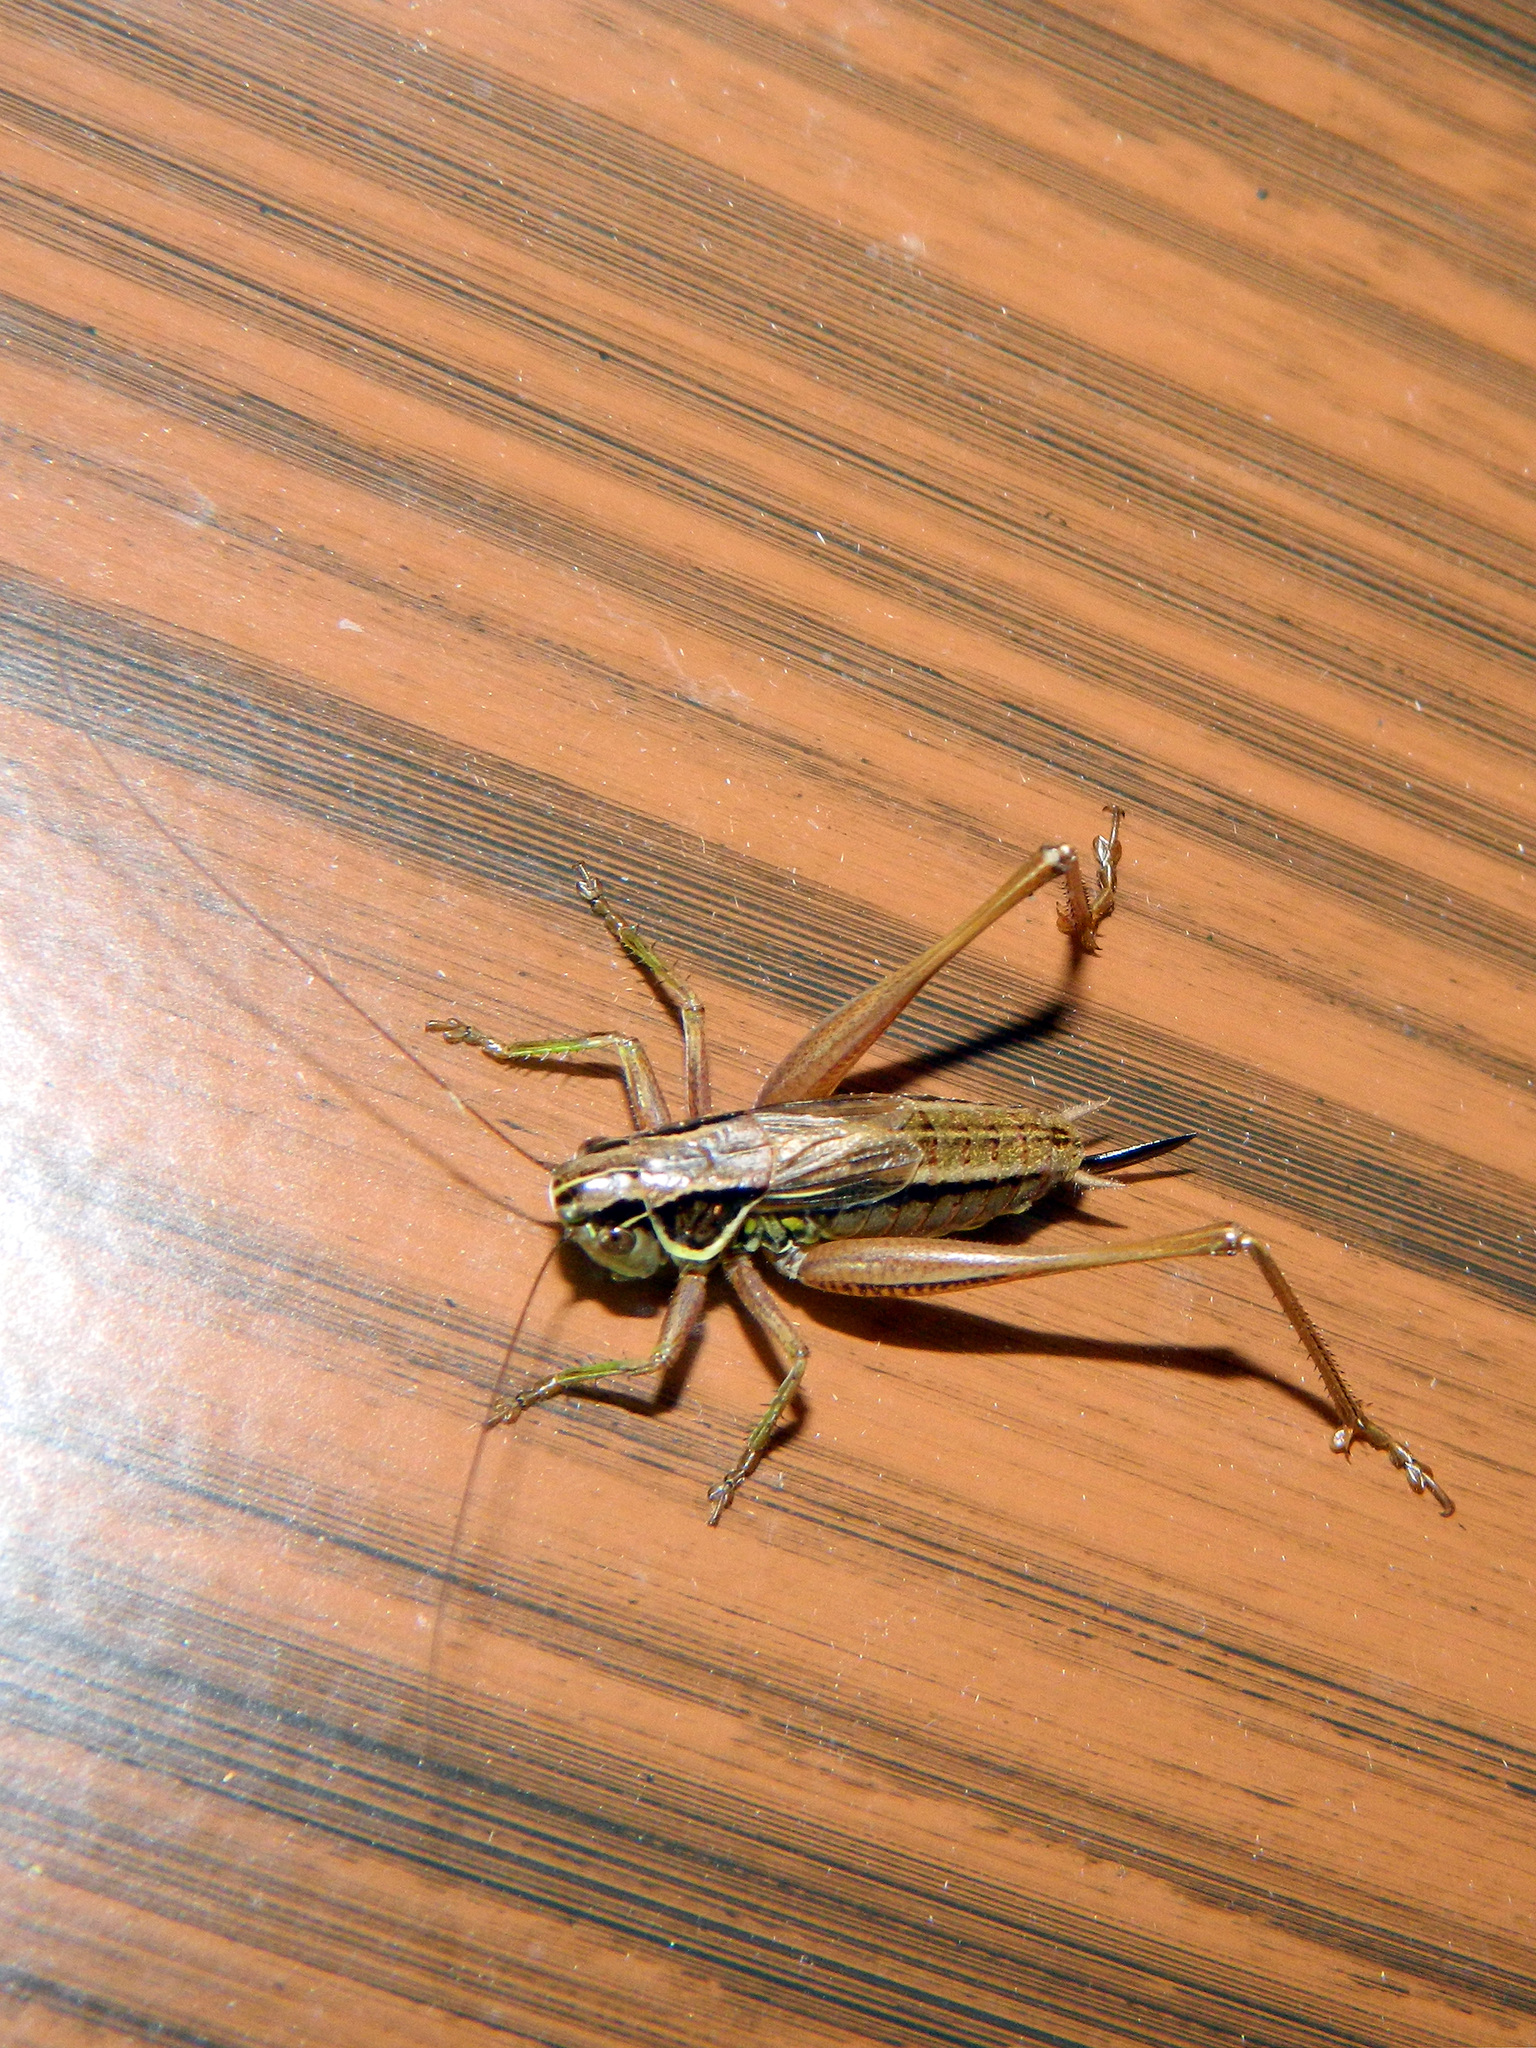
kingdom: Animalia
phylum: Arthropoda
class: Insecta
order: Orthoptera
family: Tettigoniidae
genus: Roeseliana
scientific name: Roeseliana roeselii
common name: Roesel's bush cricket
